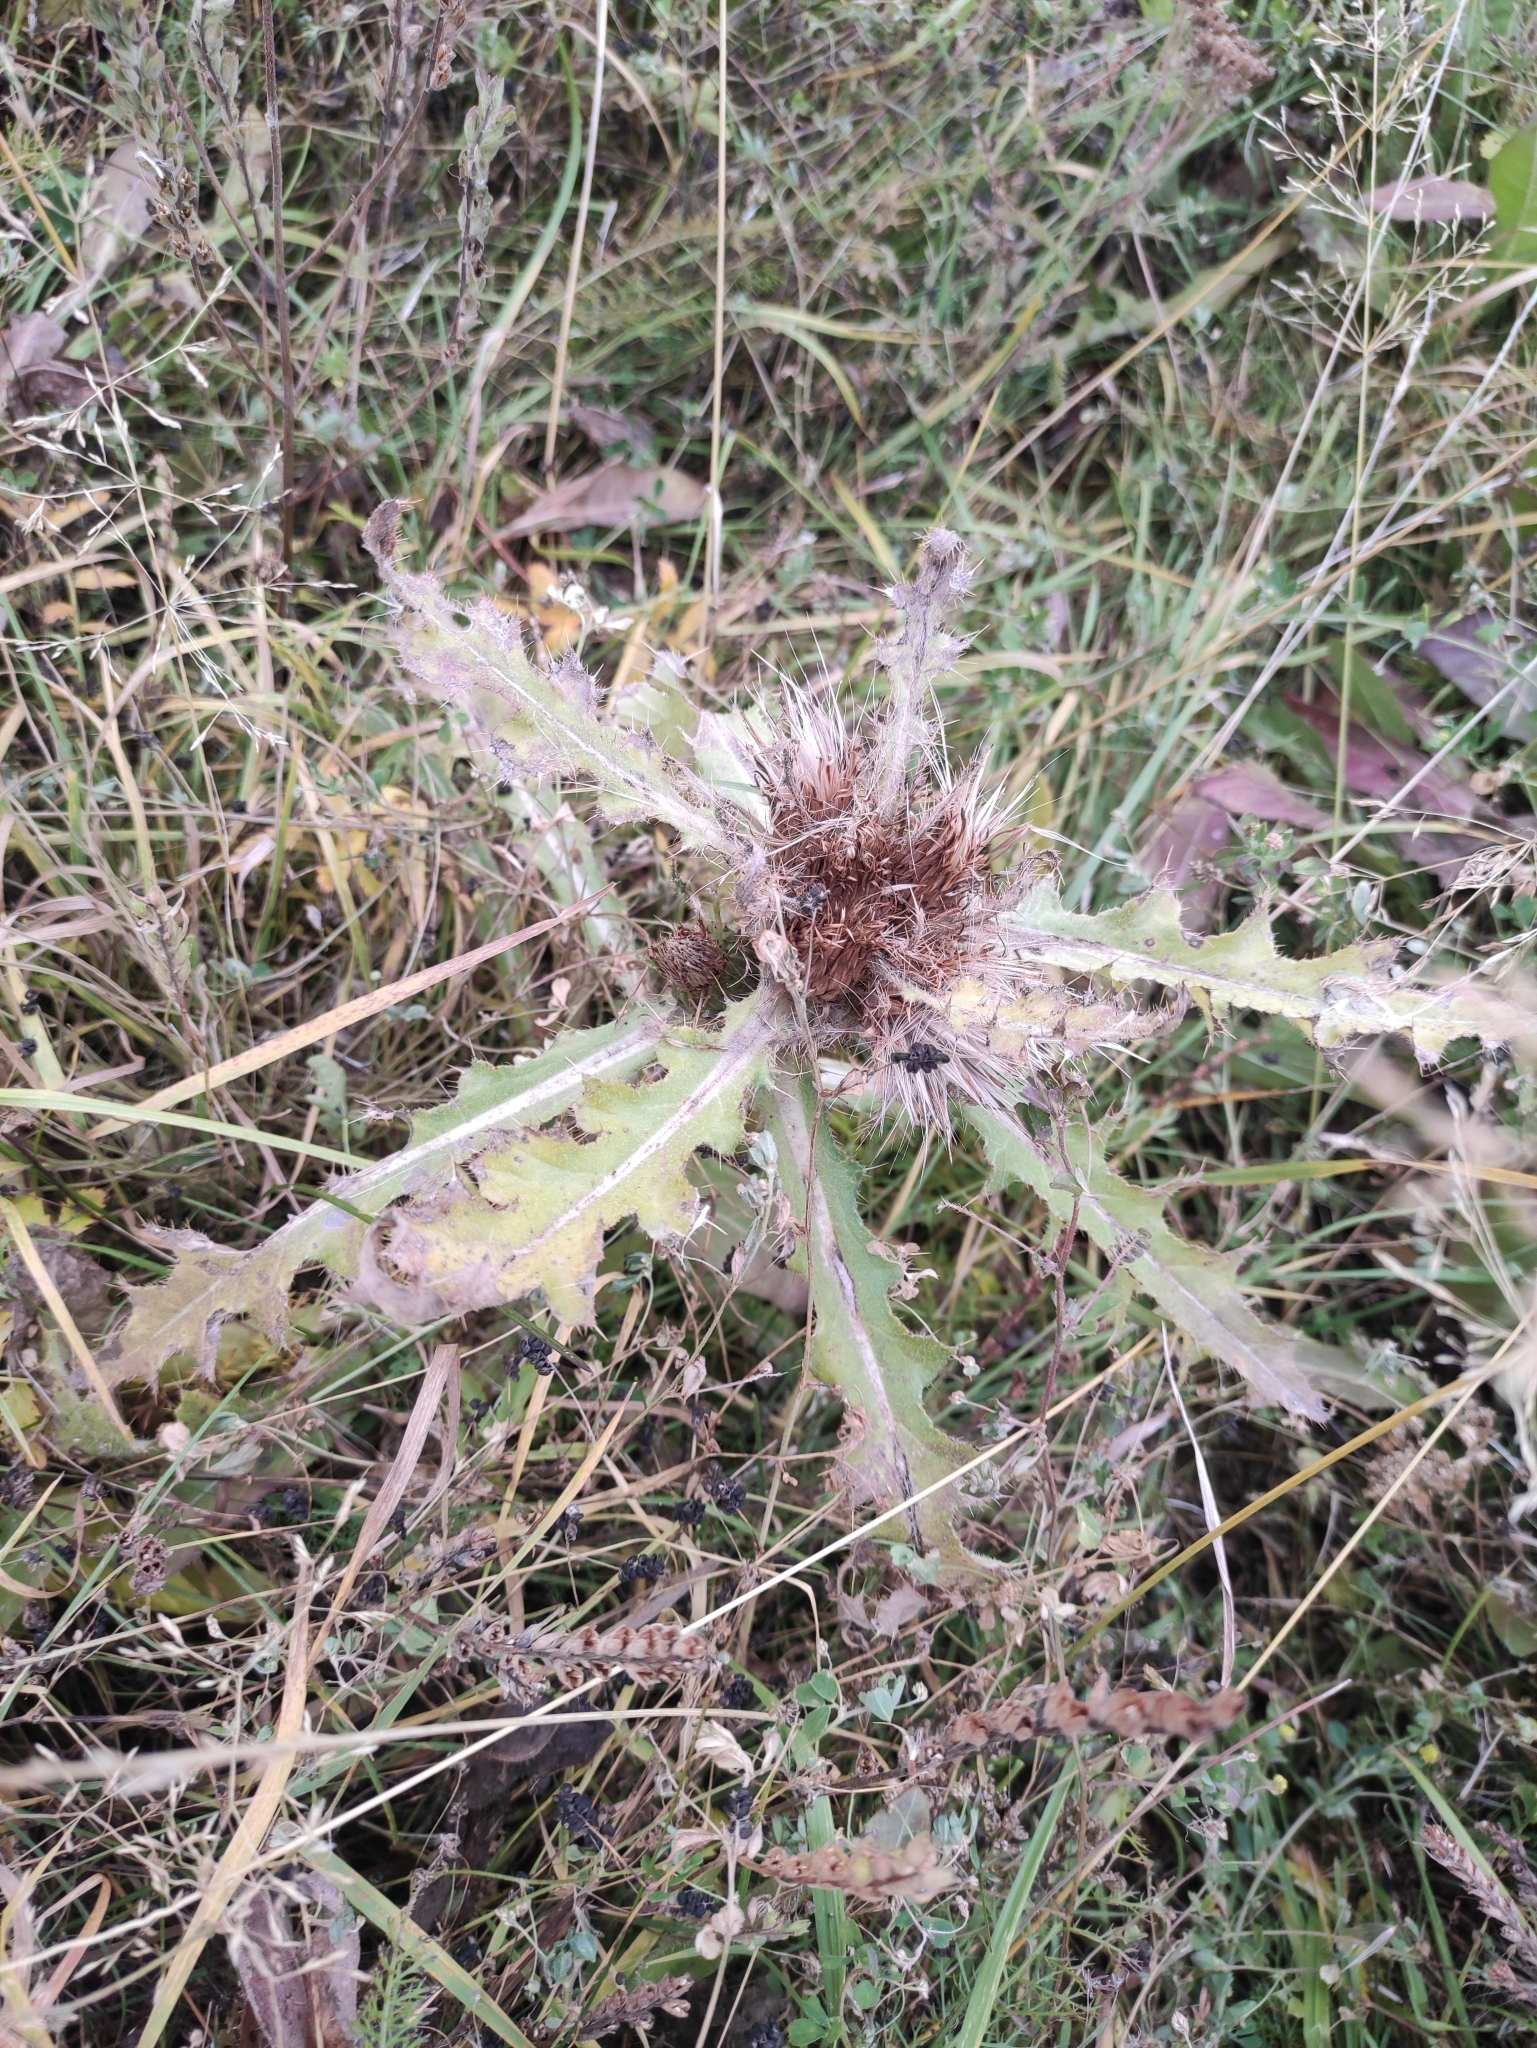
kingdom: Plantae
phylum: Tracheophyta
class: Magnoliopsida
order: Asterales
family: Asteraceae
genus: Cirsium
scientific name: Cirsium esculentum
